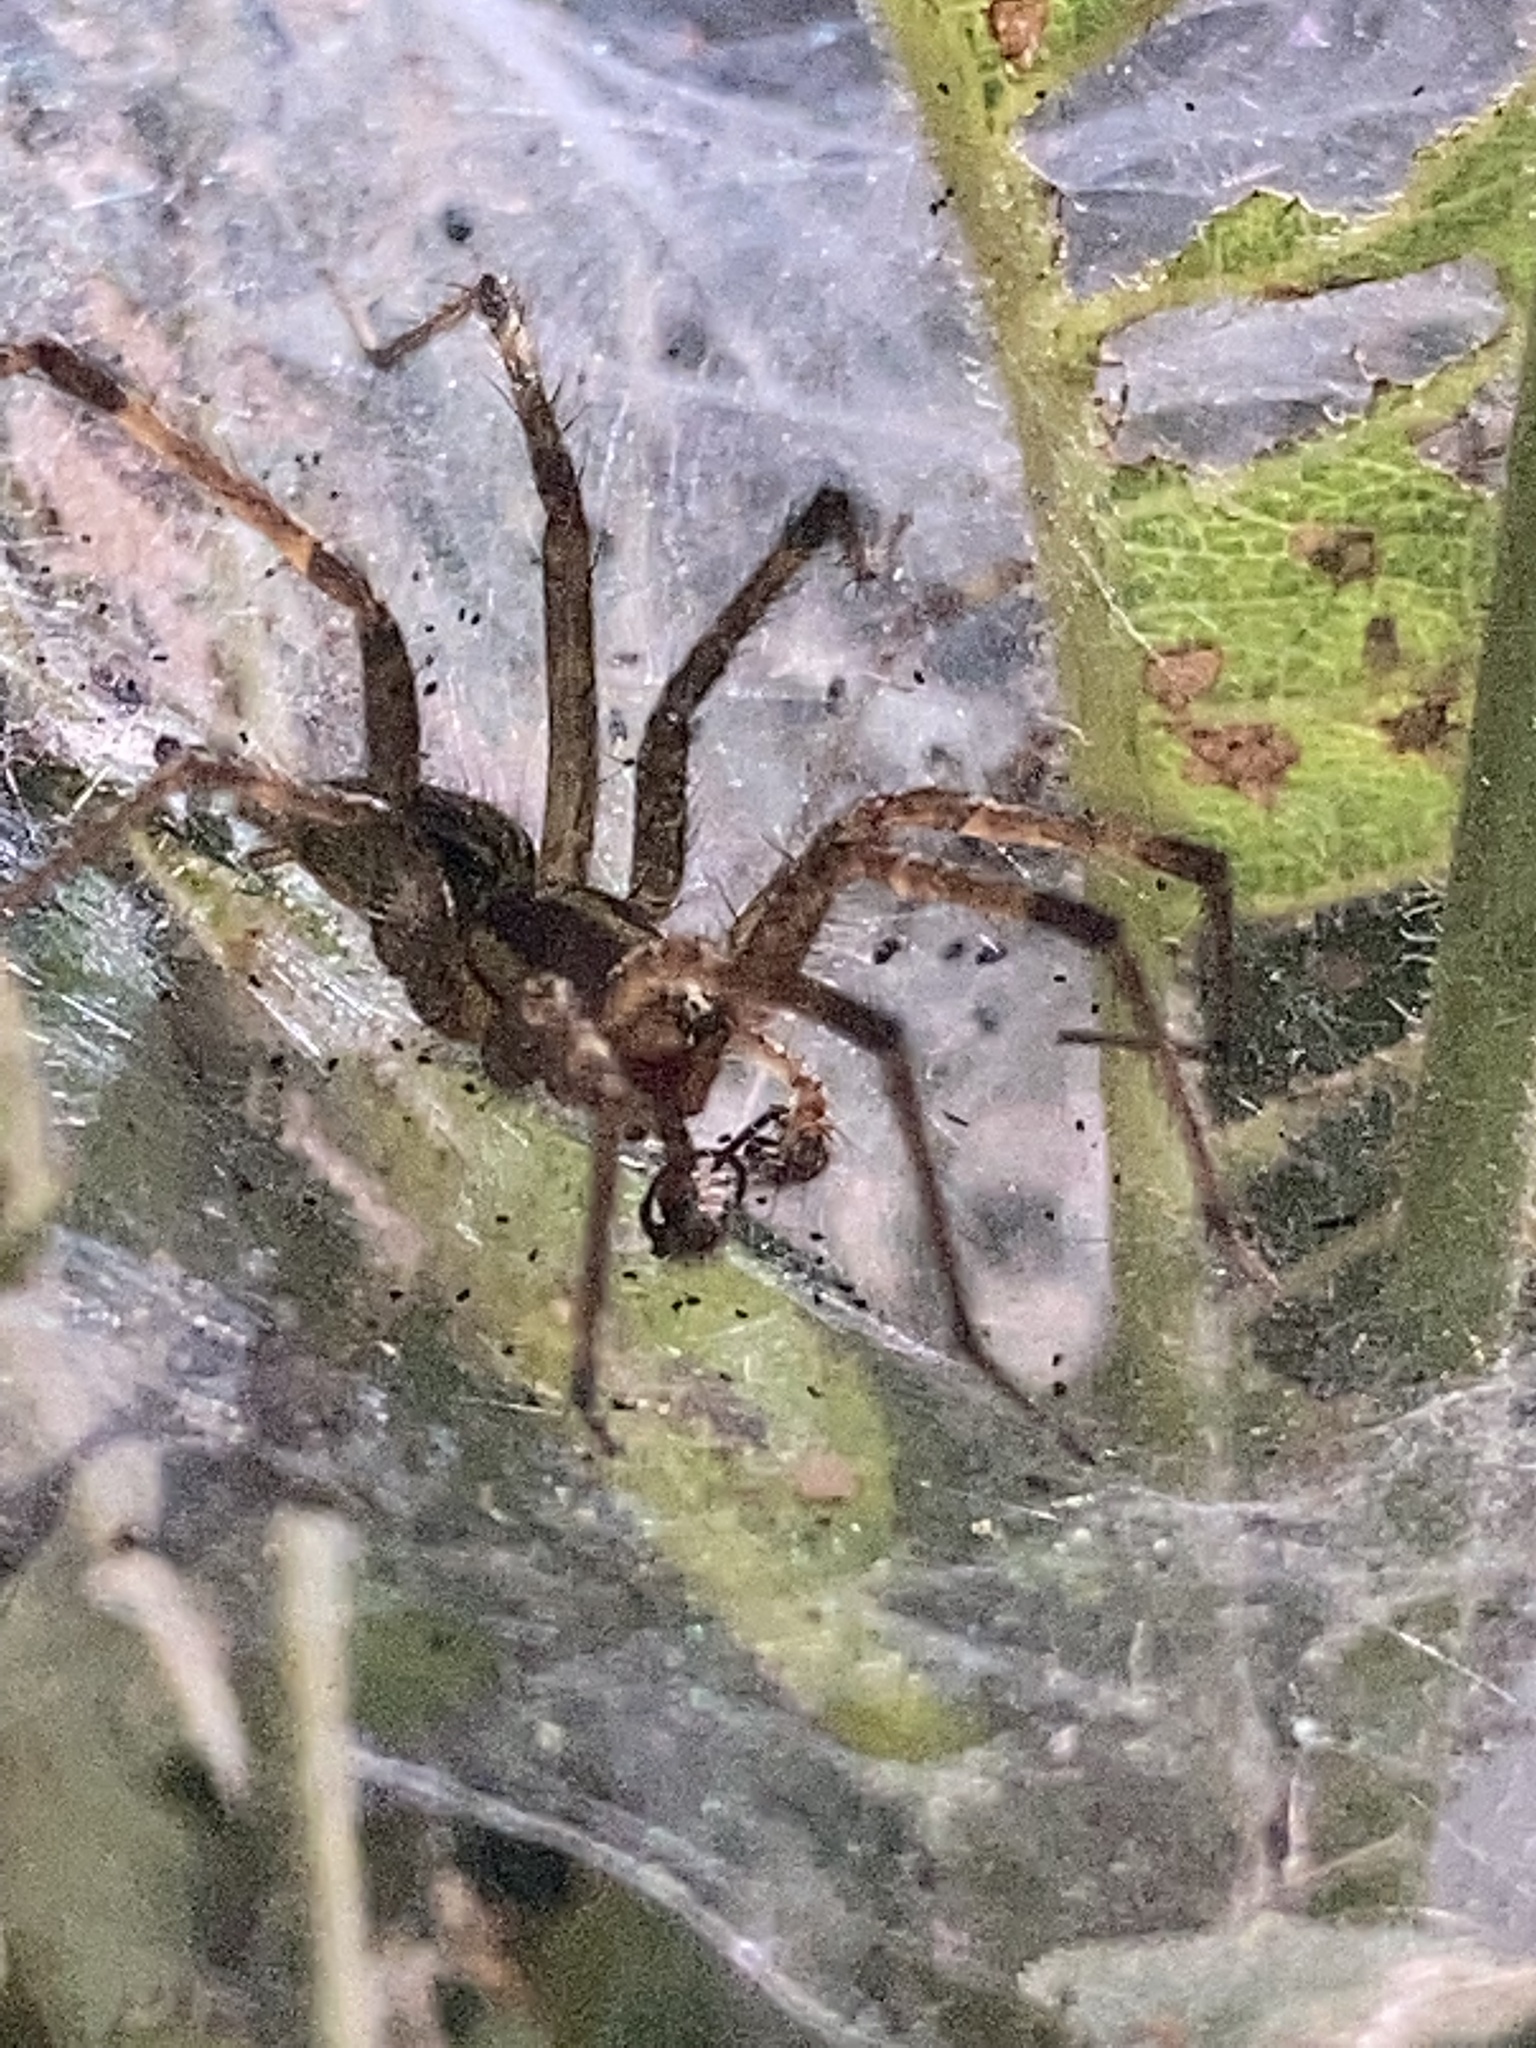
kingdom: Animalia
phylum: Arthropoda
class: Arachnida
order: Araneae
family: Agelenidae
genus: Agelenopsis
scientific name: Agelenopsis
